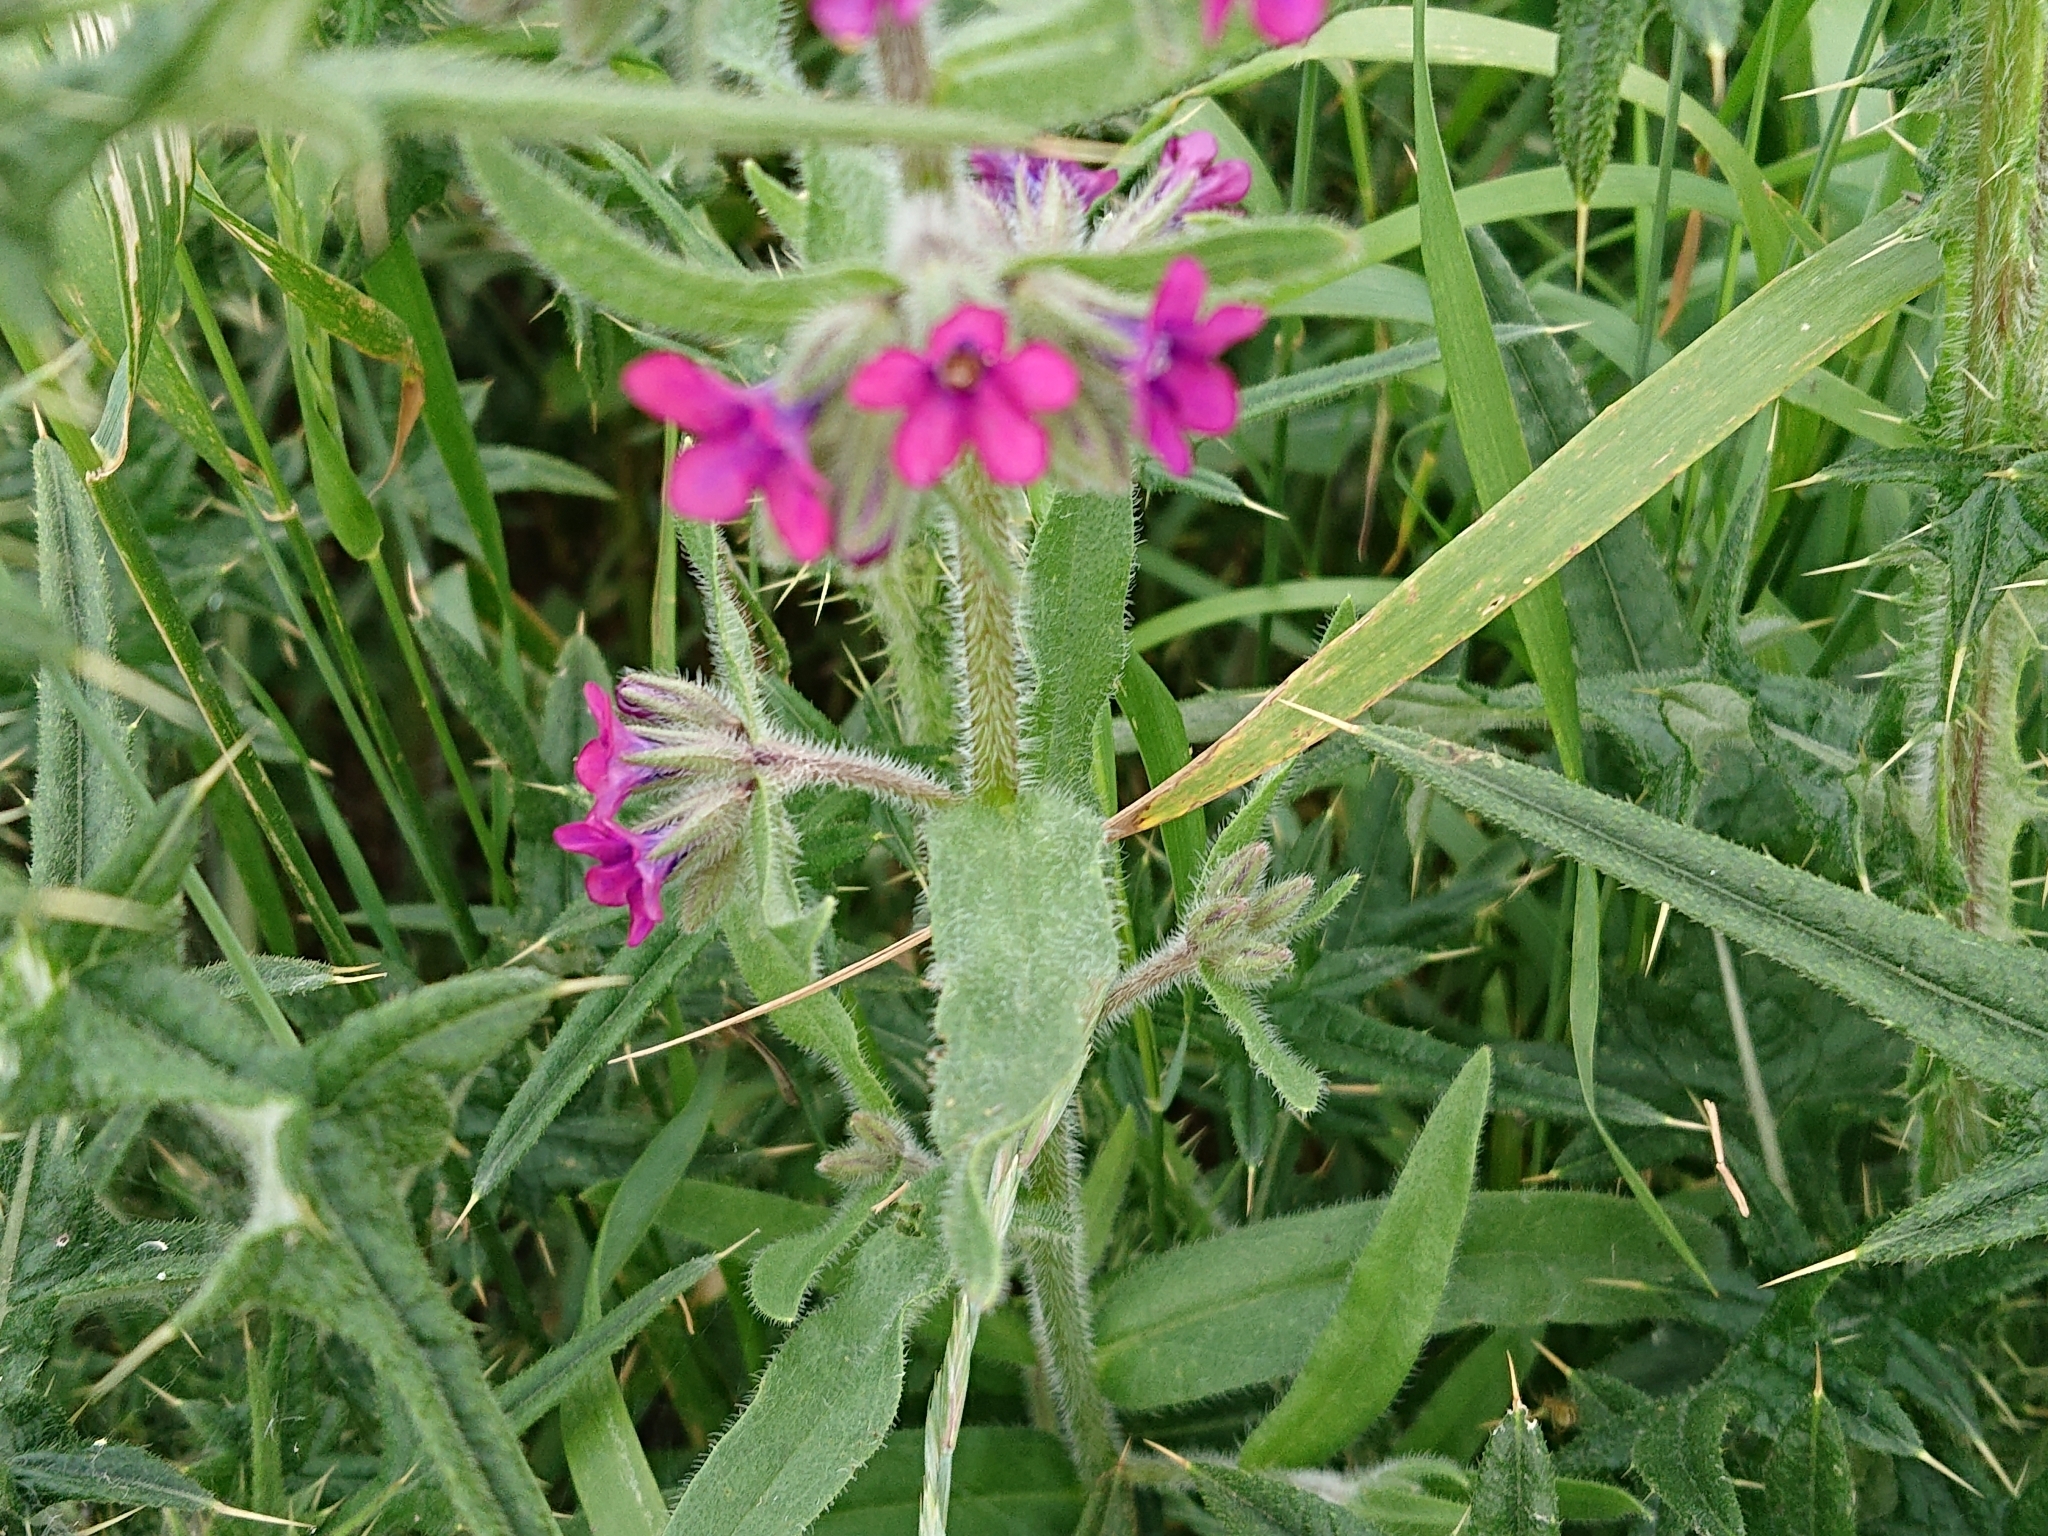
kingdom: Plantae
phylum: Tracheophyta
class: Magnoliopsida
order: Boraginales
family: Boraginaceae
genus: Anchusa
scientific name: Anchusa officinalis
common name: Alkanet
